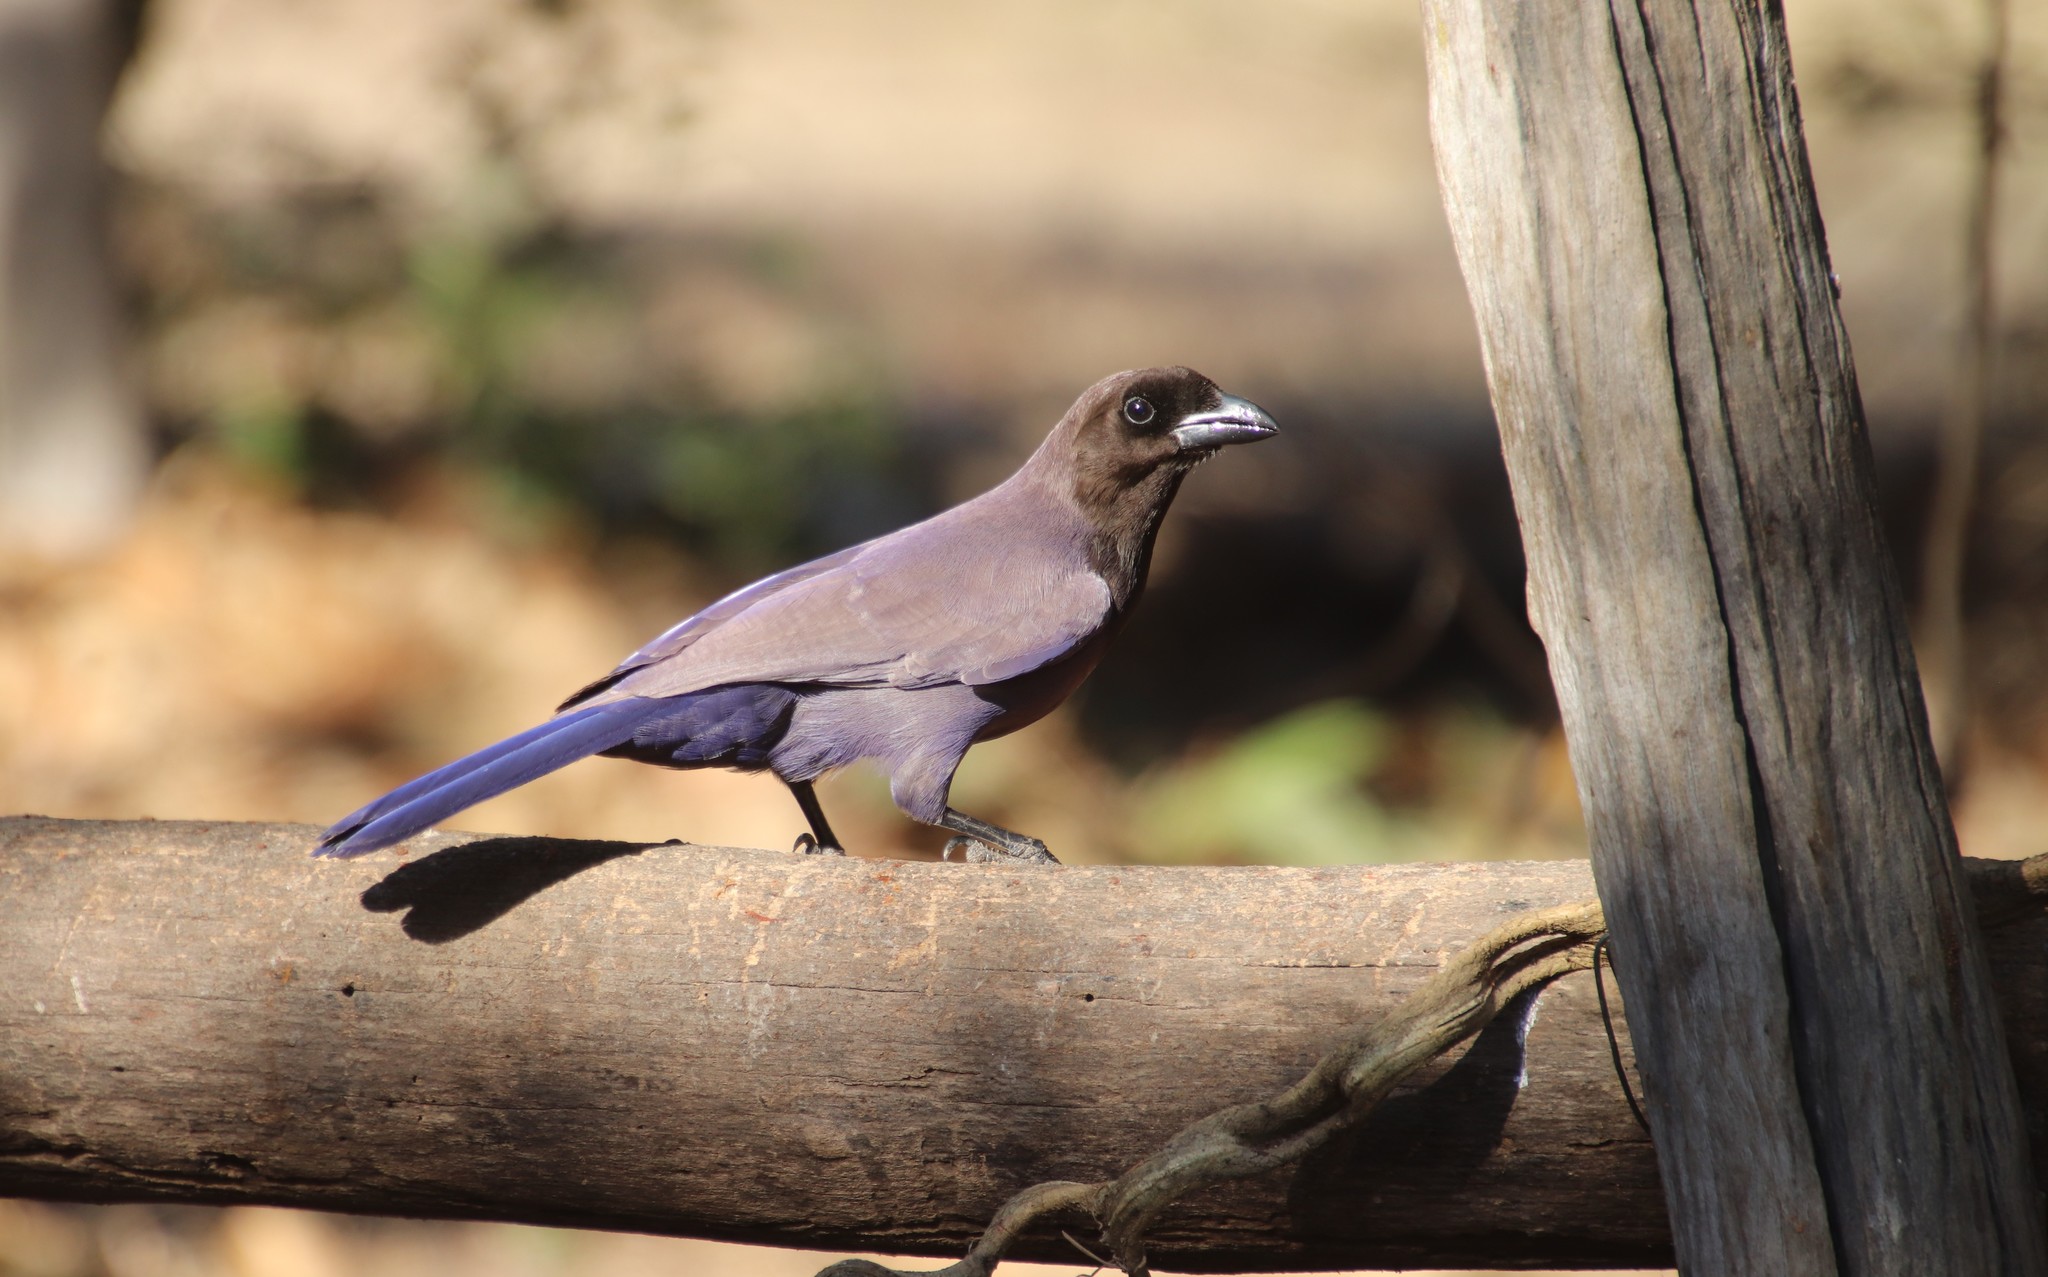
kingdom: Animalia
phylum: Chordata
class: Aves
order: Passeriformes
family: Corvidae
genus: Cyanocorax
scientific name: Cyanocorax cyanomelas
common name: Purplish jay
